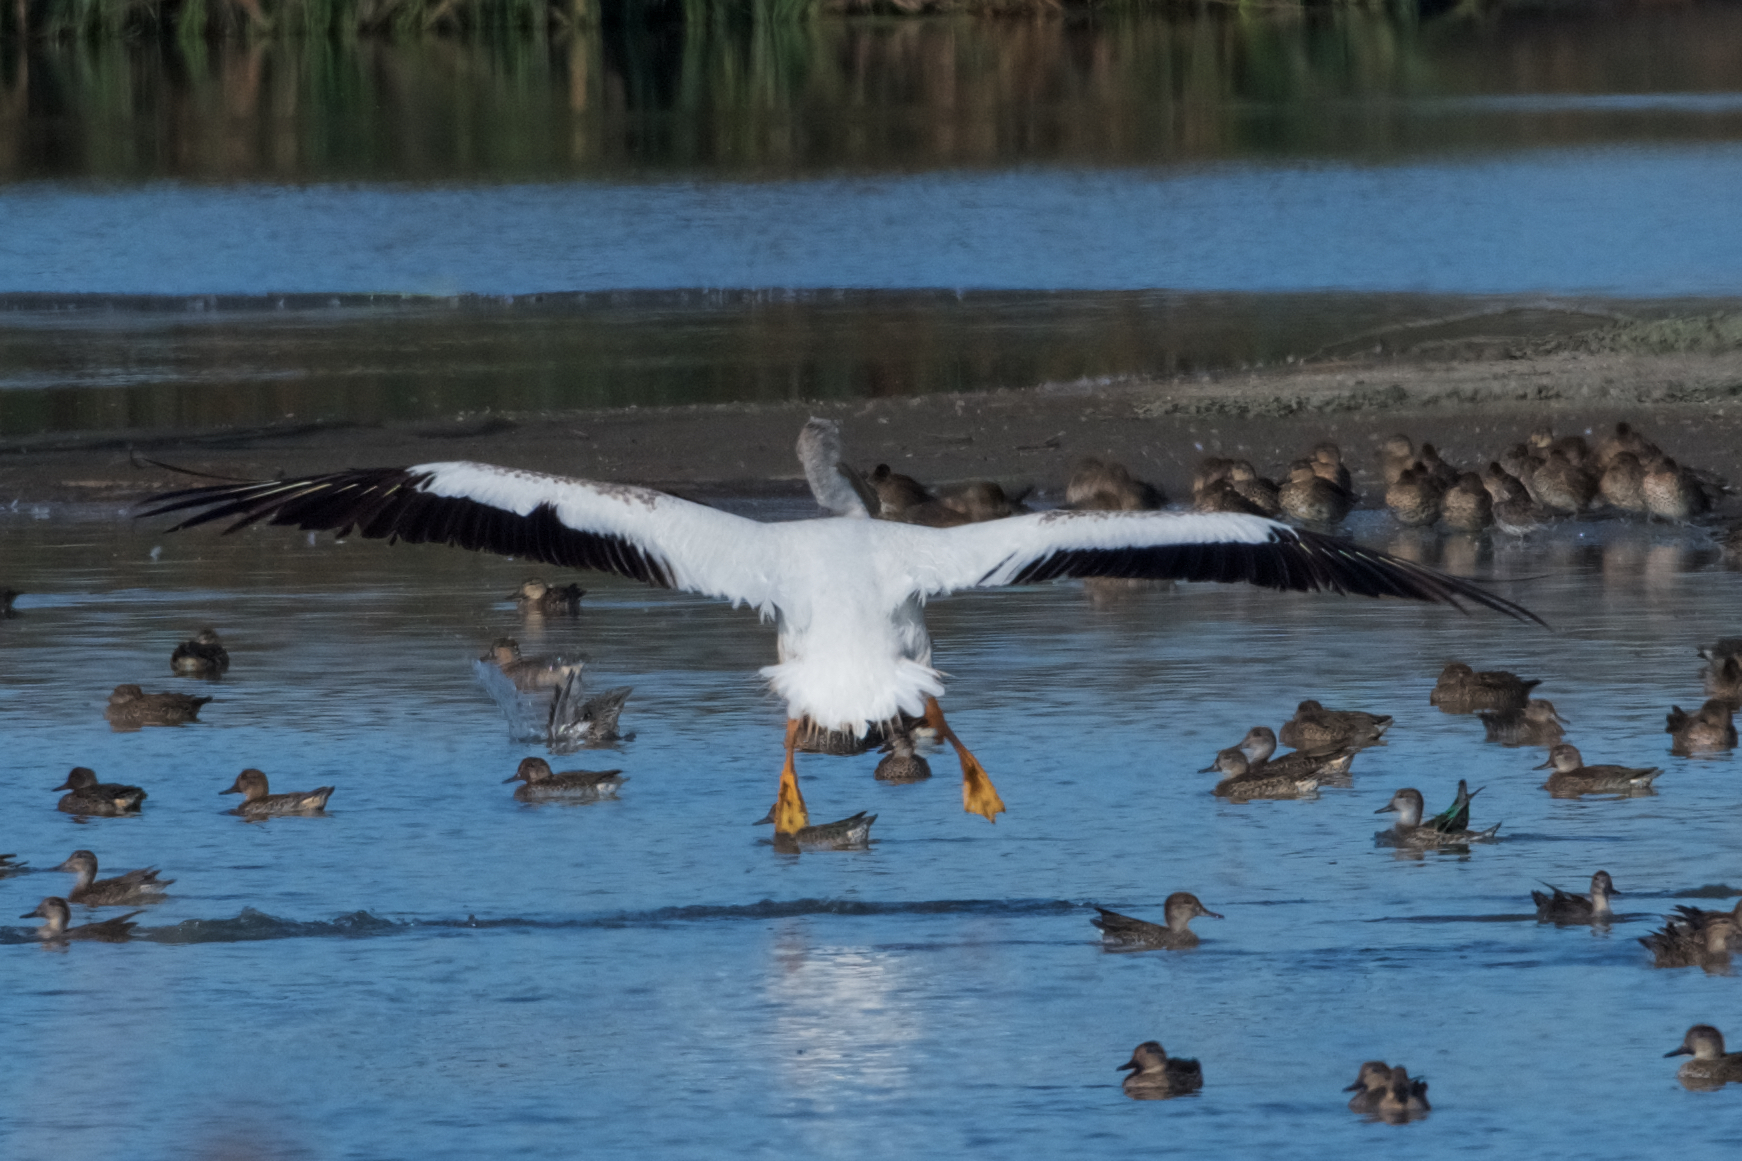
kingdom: Animalia
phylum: Chordata
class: Aves
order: Pelecaniformes
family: Pelecanidae
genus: Pelecanus
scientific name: Pelecanus erythrorhynchos
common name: American white pelican
